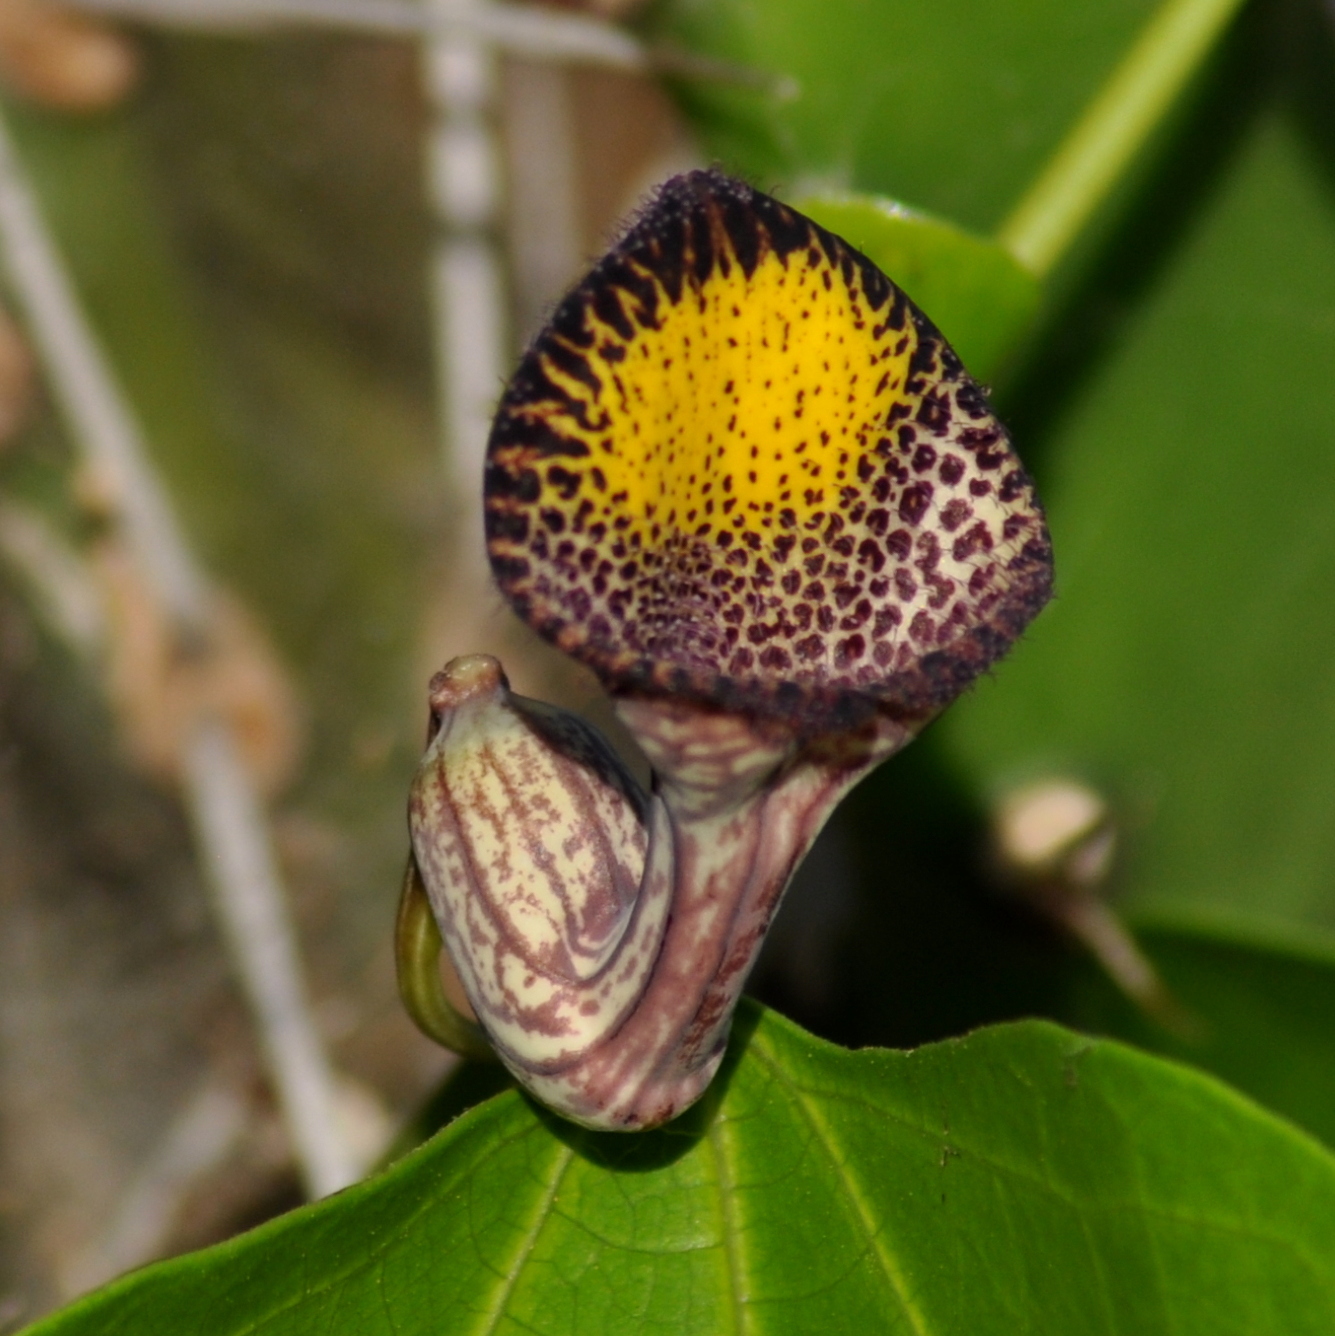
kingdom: Plantae
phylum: Tracheophyta
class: Magnoliopsida
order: Piperales
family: Aristolochiaceae
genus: Aristolochia
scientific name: Aristolochia triangularis
